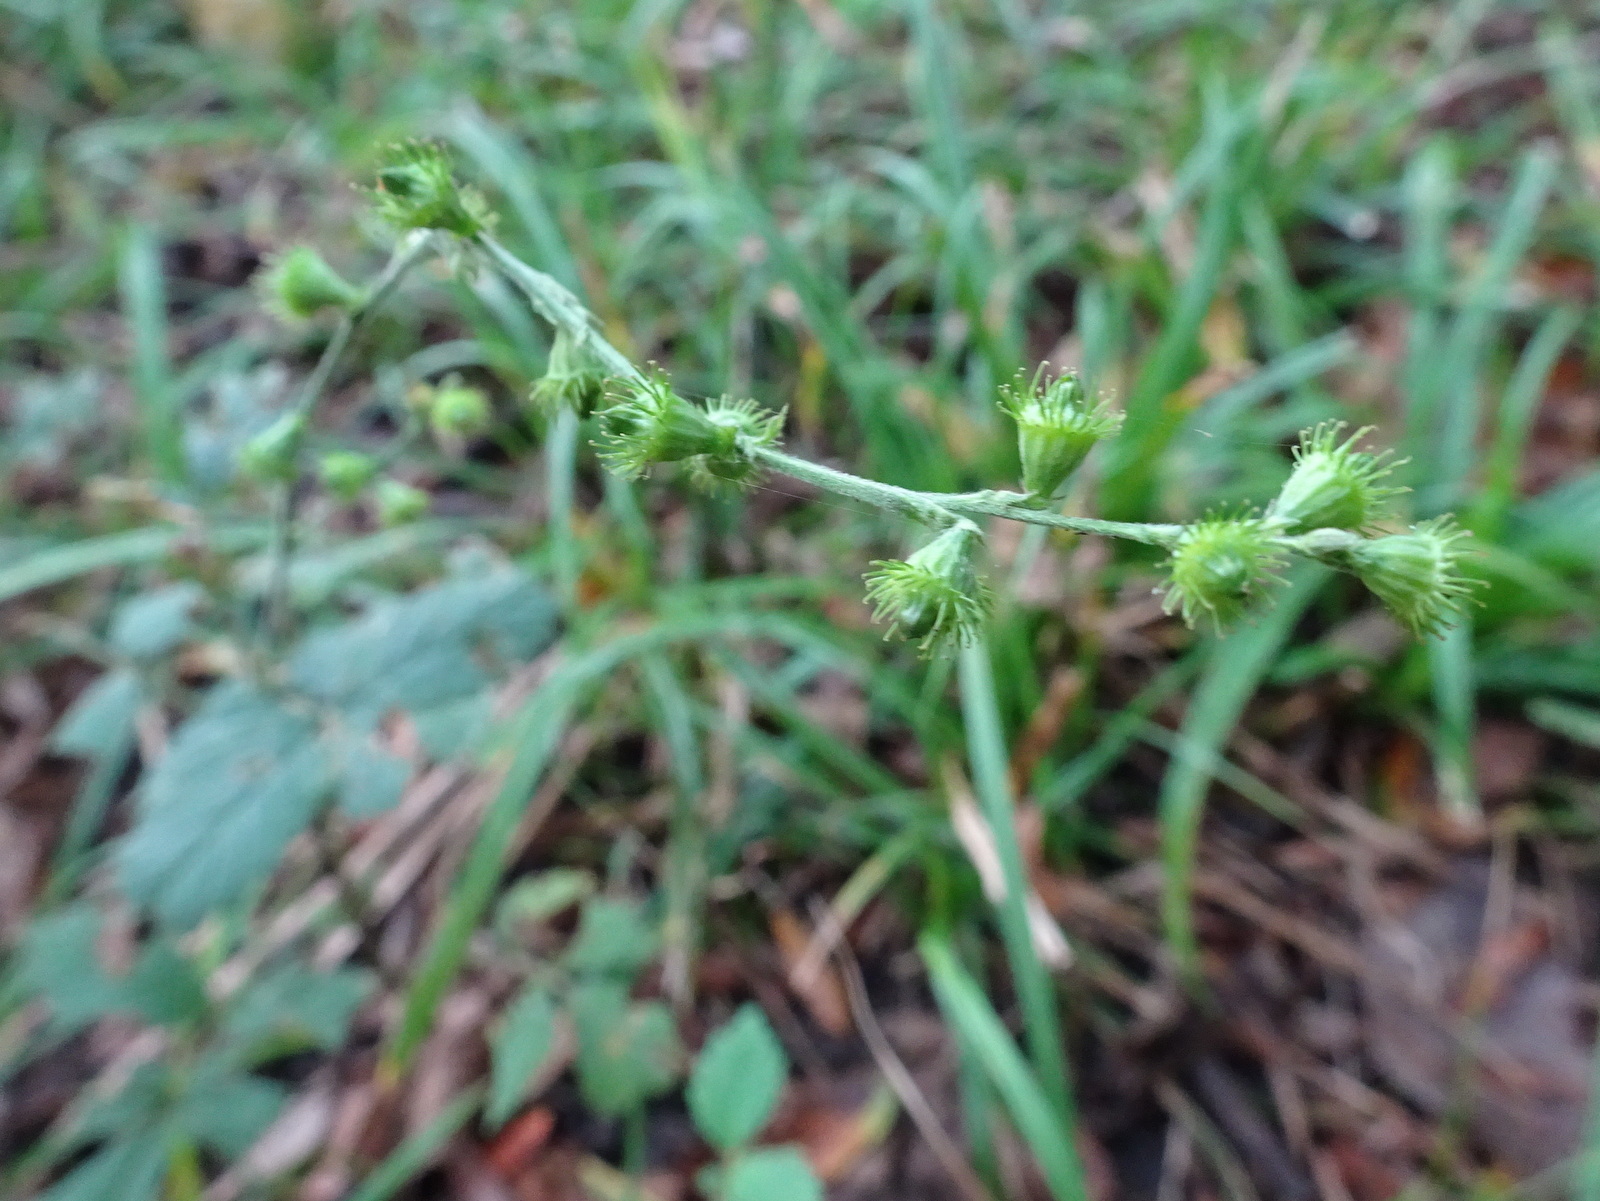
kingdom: Plantae
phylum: Tracheophyta
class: Magnoliopsida
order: Rosales
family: Rosaceae
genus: Agrimonia
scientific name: Agrimonia pubescens
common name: Downy agrimony
